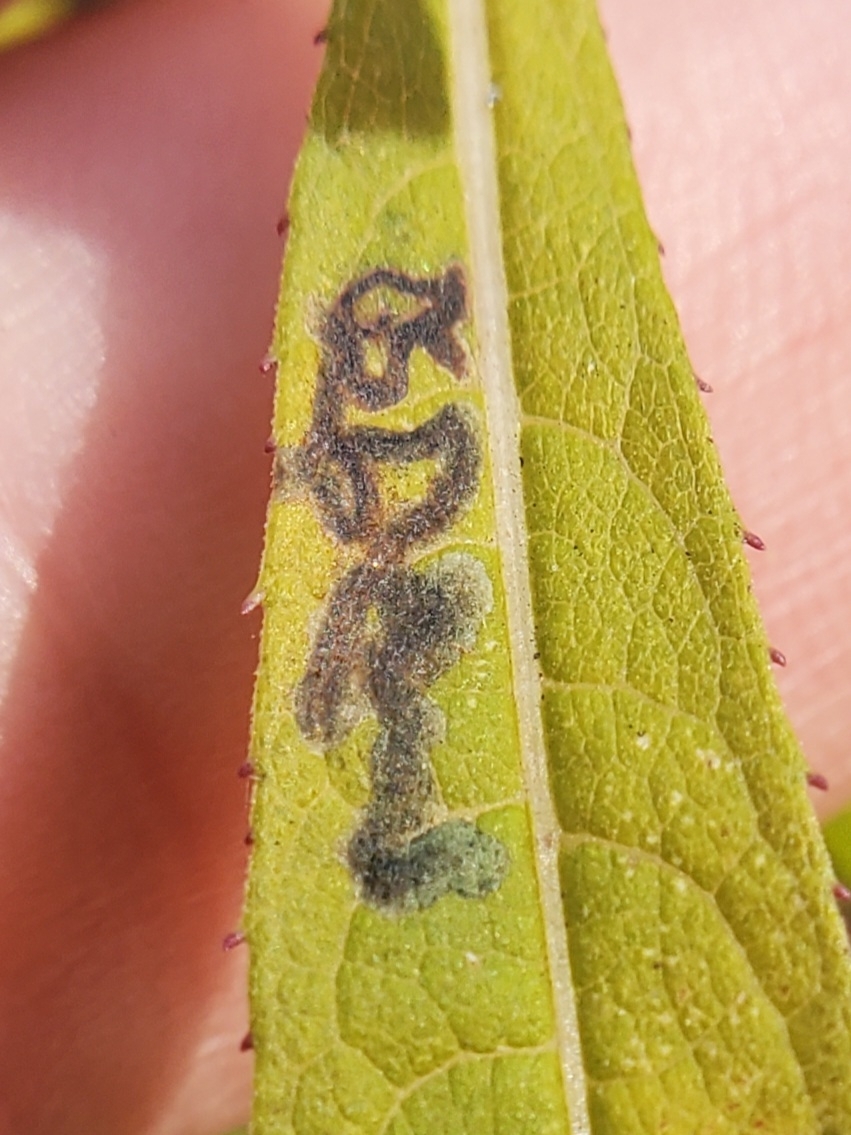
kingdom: Animalia
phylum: Arthropoda
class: Insecta
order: Diptera
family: Agromyzidae
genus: Liriomyza
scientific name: Liriomyza eupatoriella
